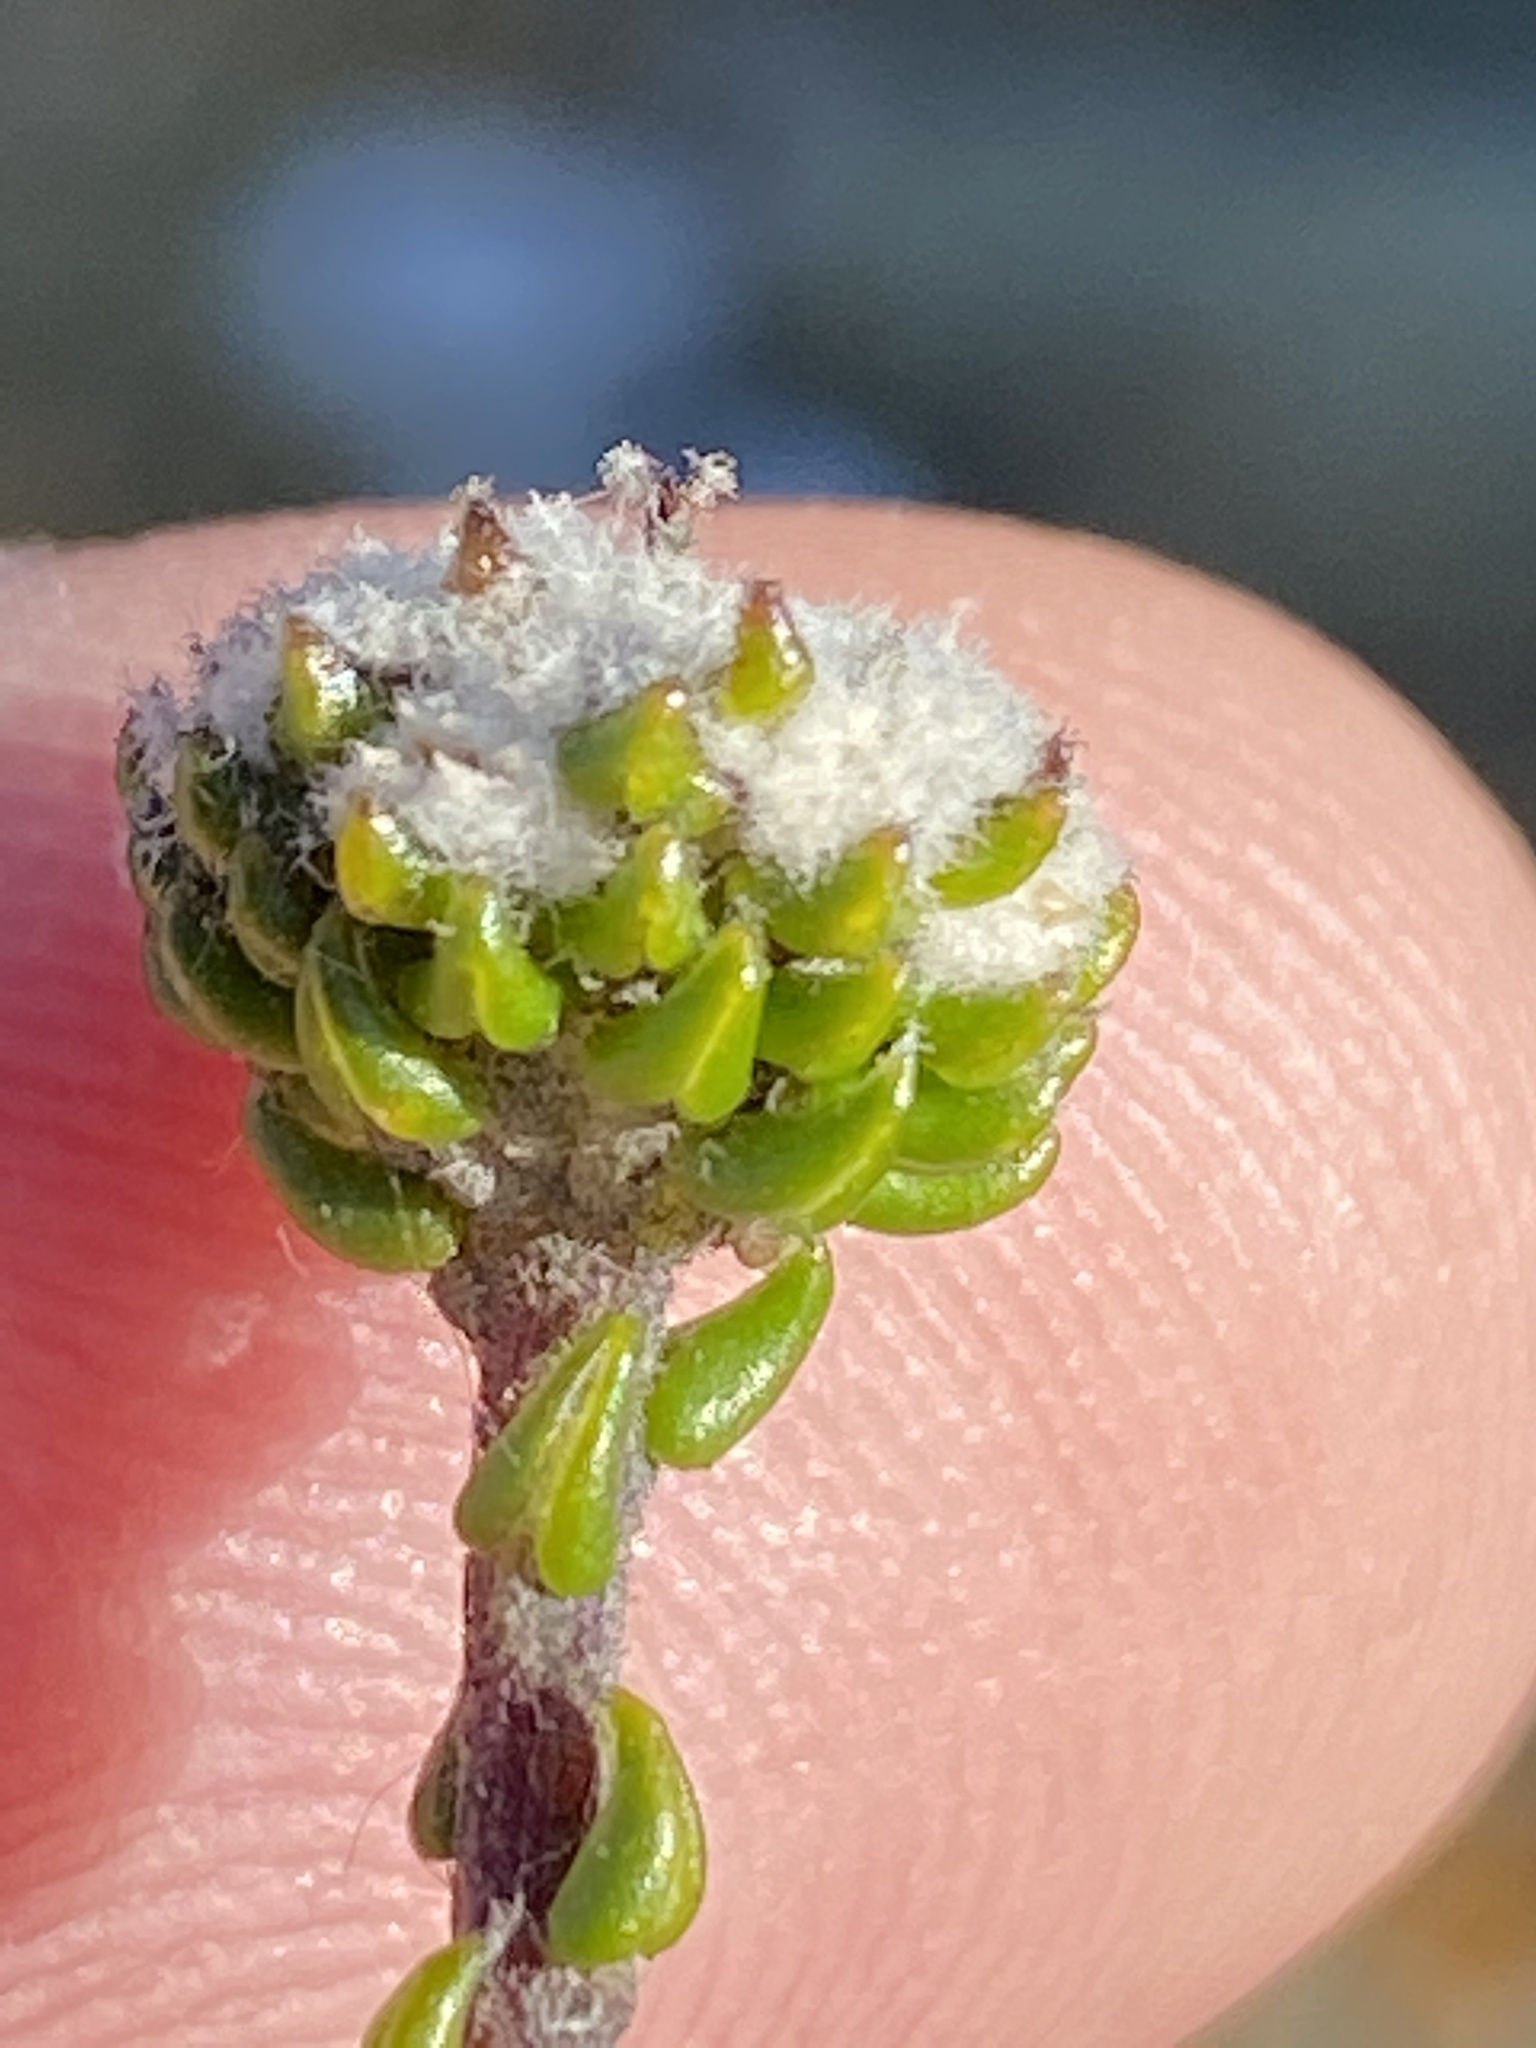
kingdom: Plantae
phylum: Tracheophyta
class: Magnoliopsida
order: Rosales
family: Rhamnaceae
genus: Phylica
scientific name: Phylica debilis
